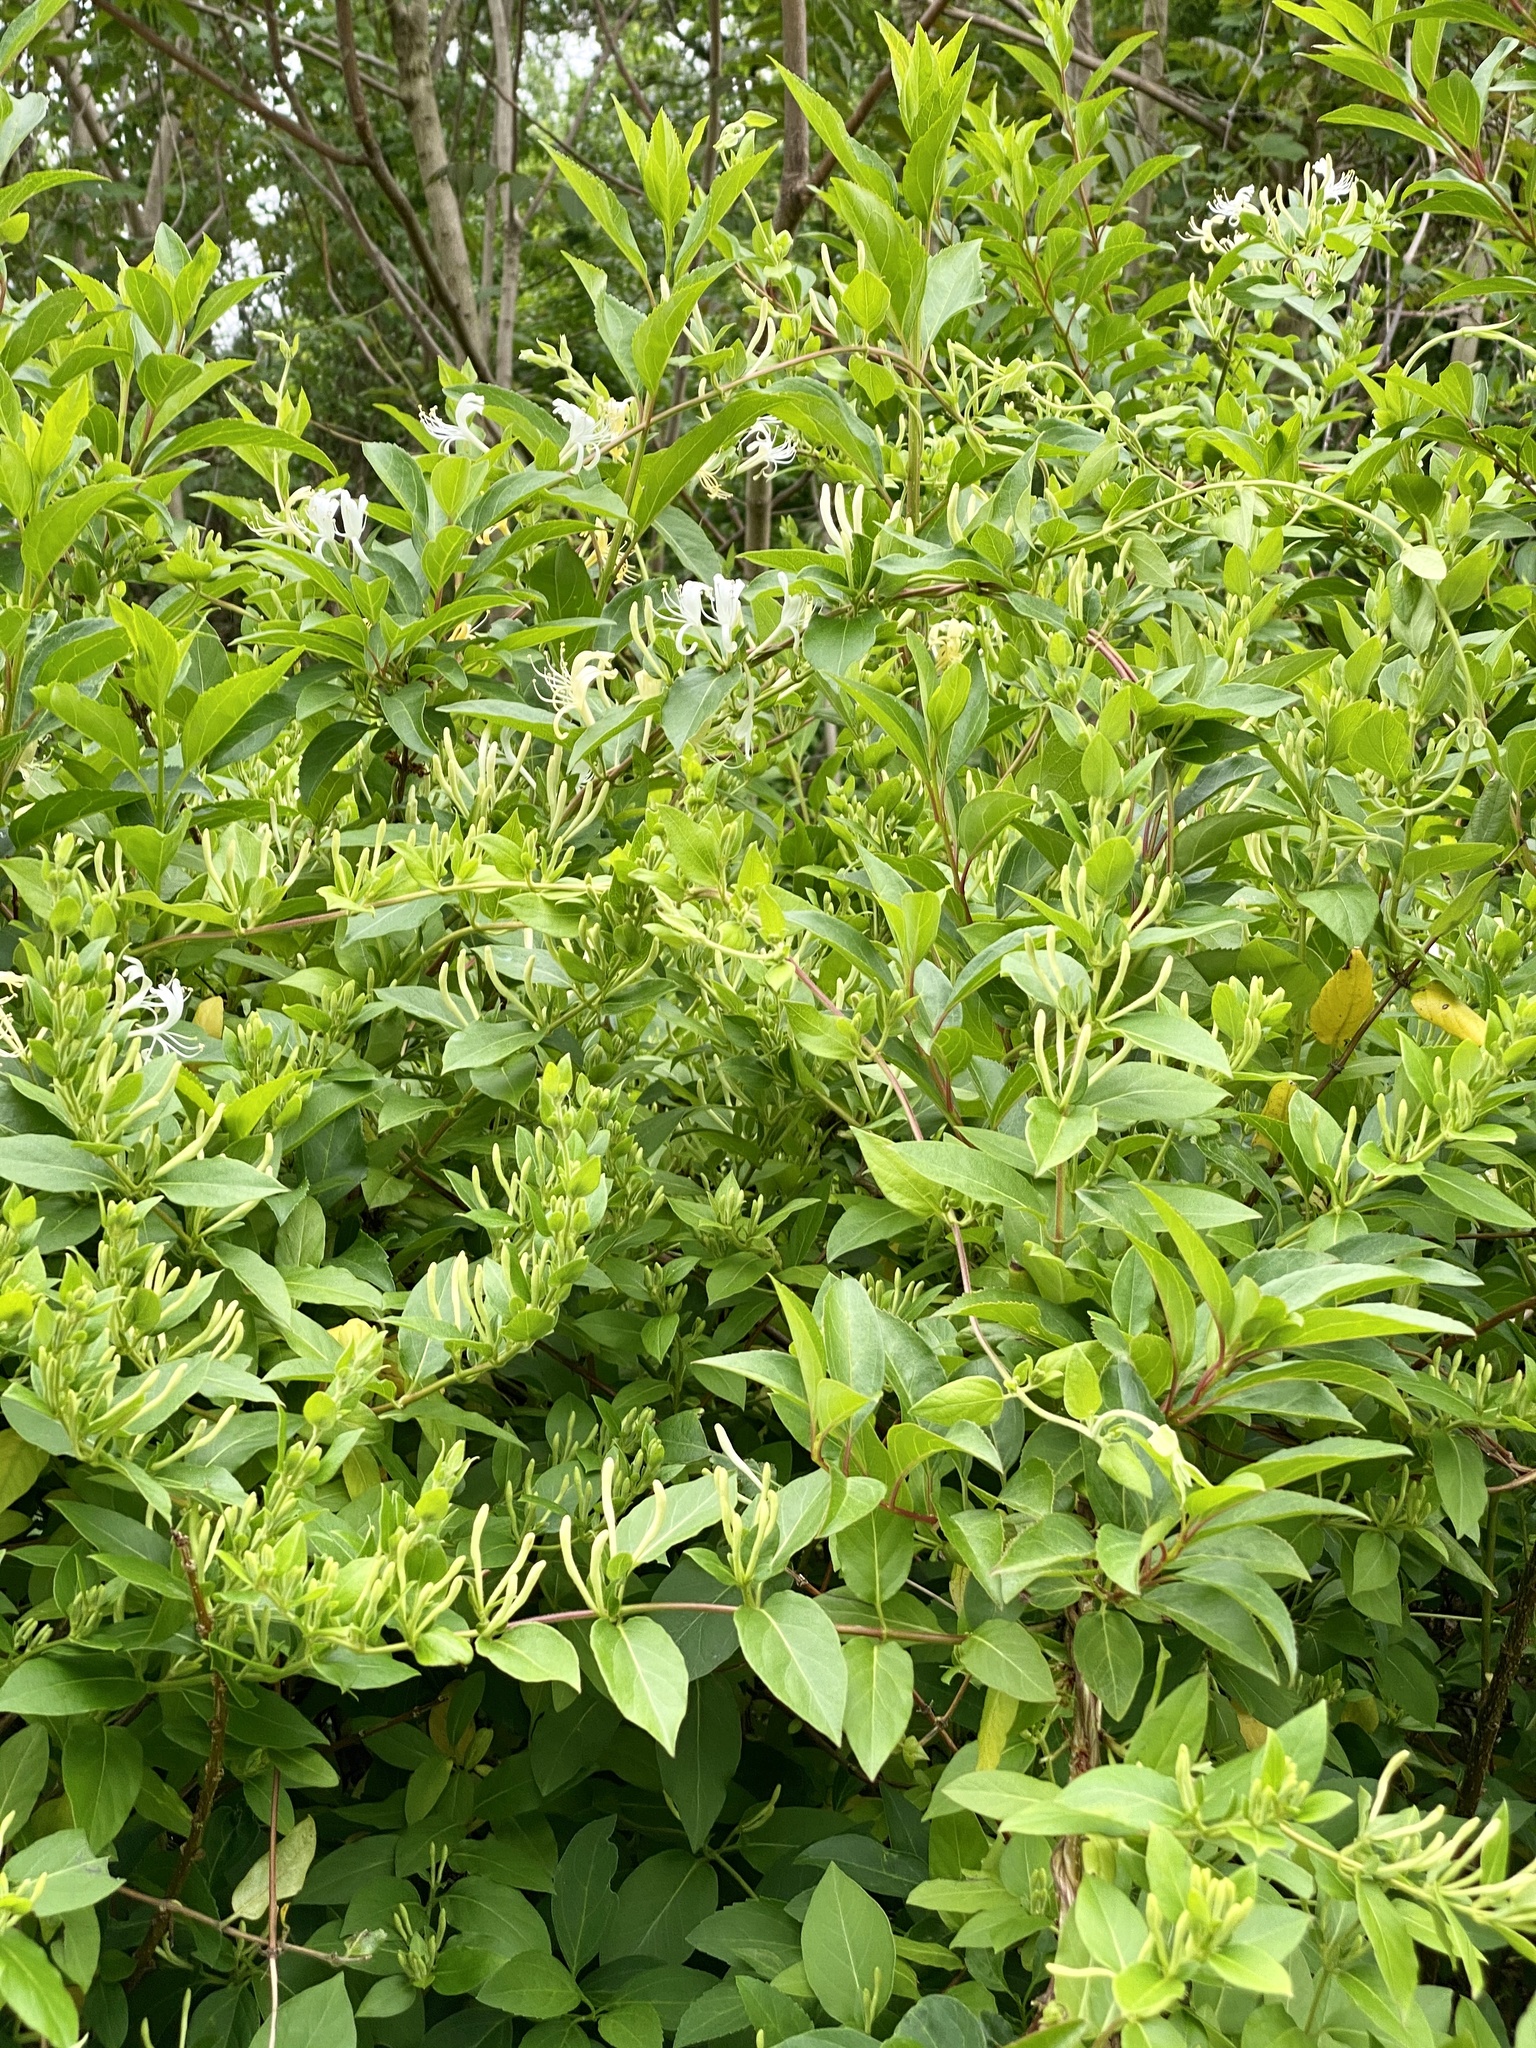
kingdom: Plantae
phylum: Tracheophyta
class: Magnoliopsida
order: Dipsacales
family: Caprifoliaceae
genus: Lonicera
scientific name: Lonicera japonica
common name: Japanese honeysuckle
